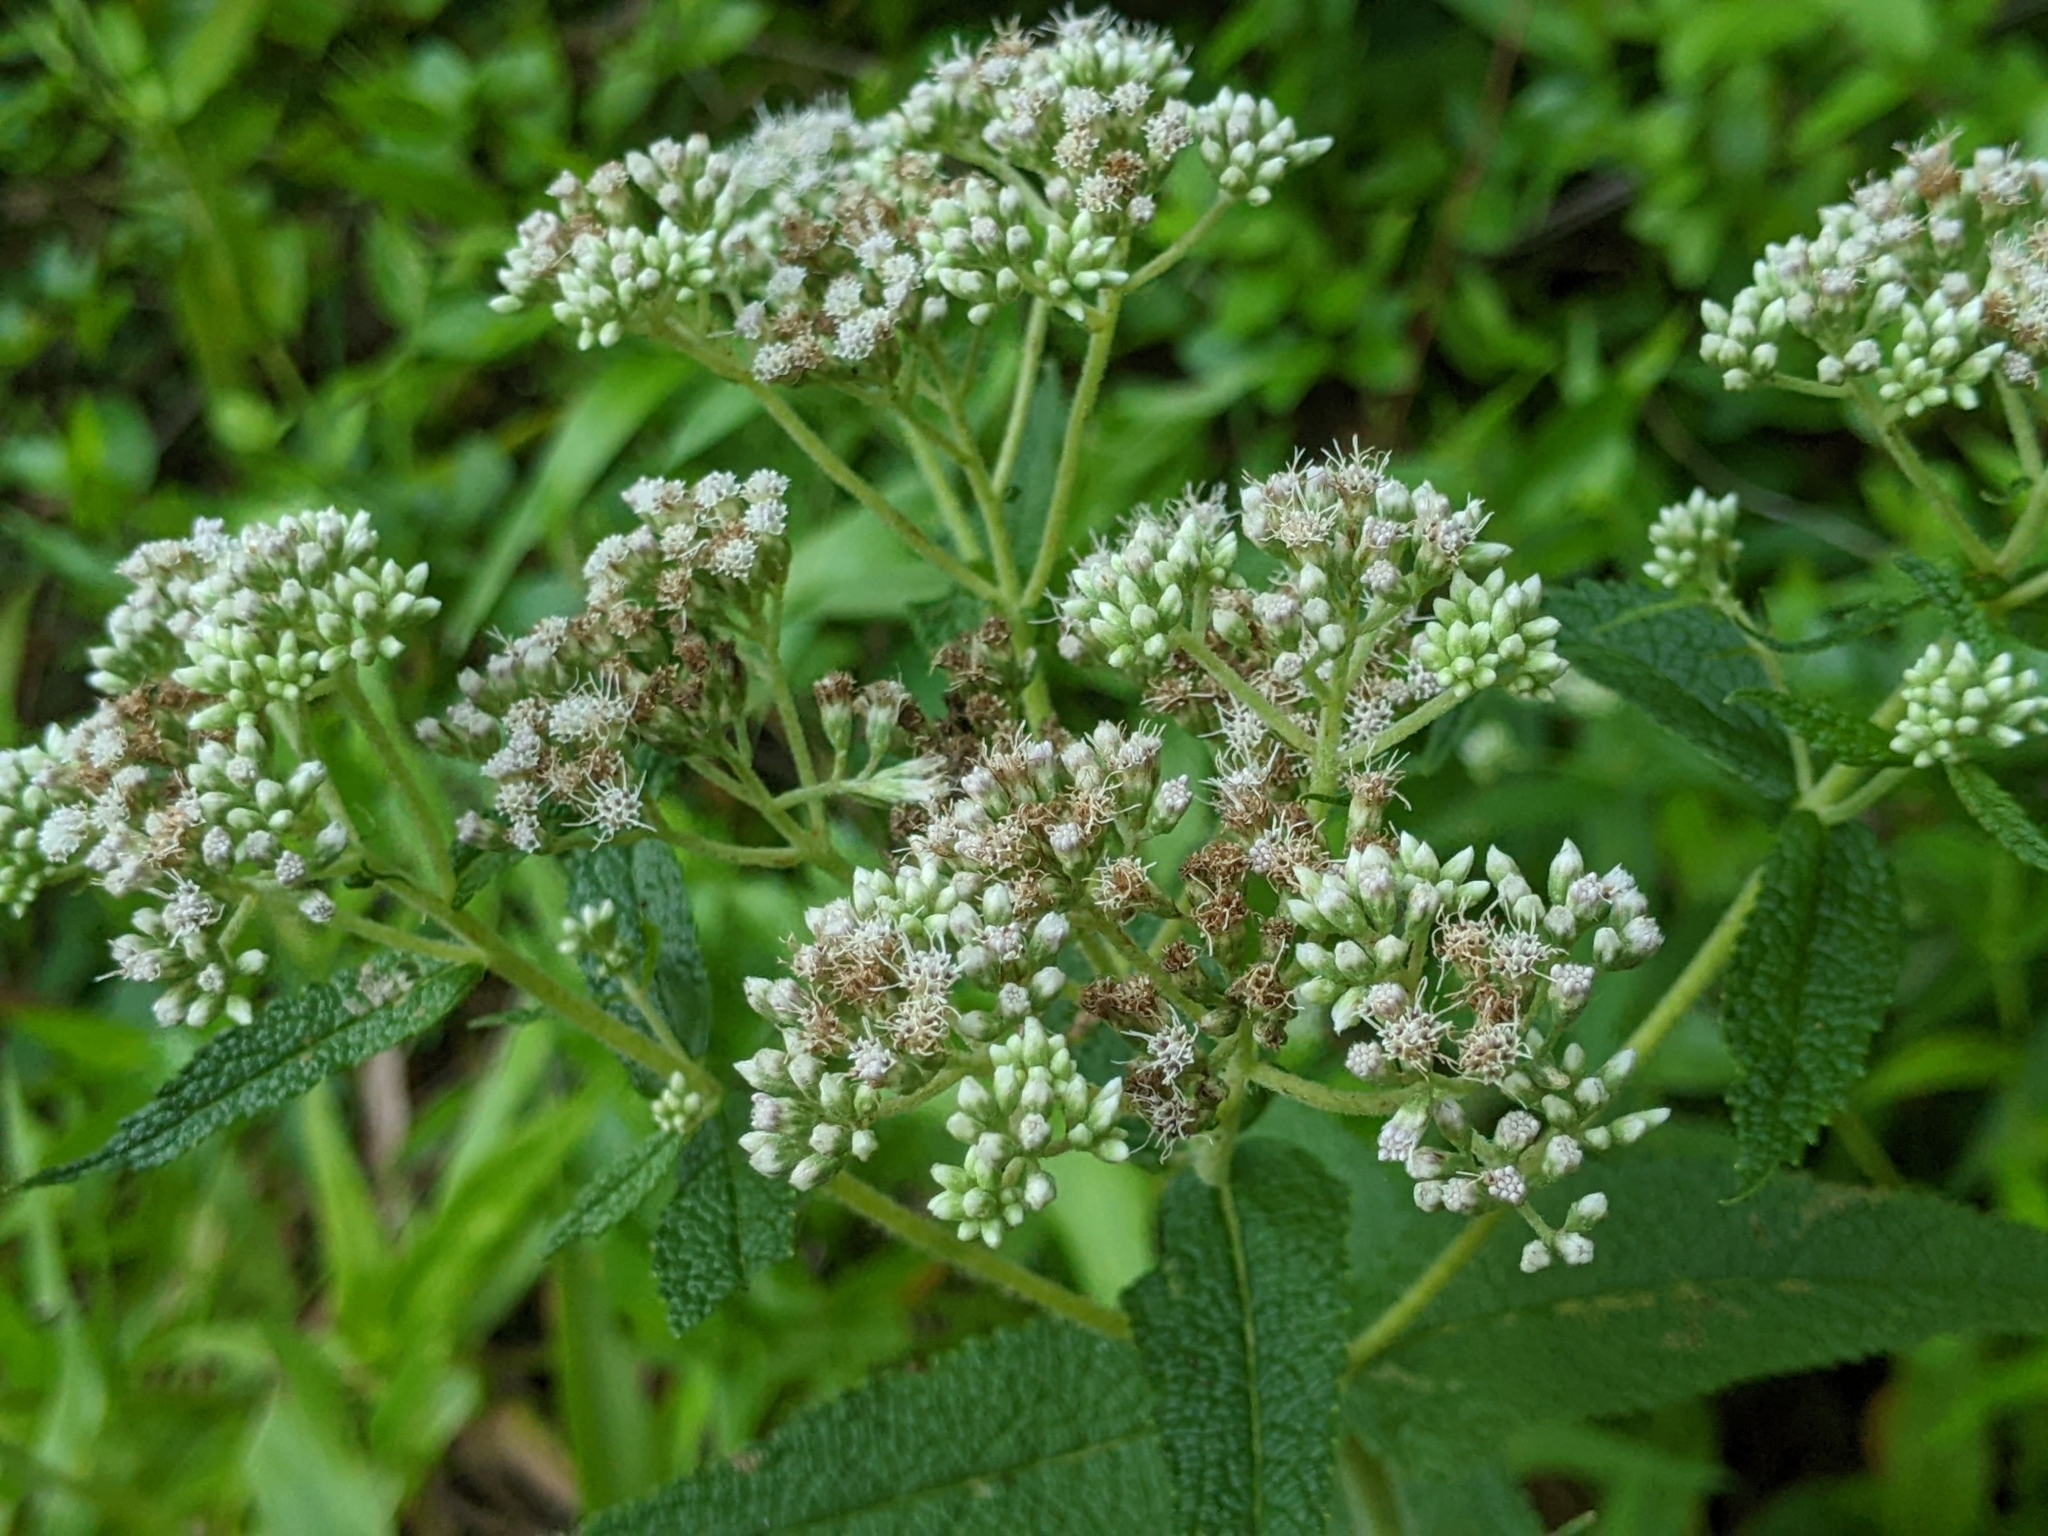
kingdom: Plantae
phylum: Tracheophyta
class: Magnoliopsida
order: Asterales
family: Asteraceae
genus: Eupatorium
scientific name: Eupatorium perfoliatum
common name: Boneset
